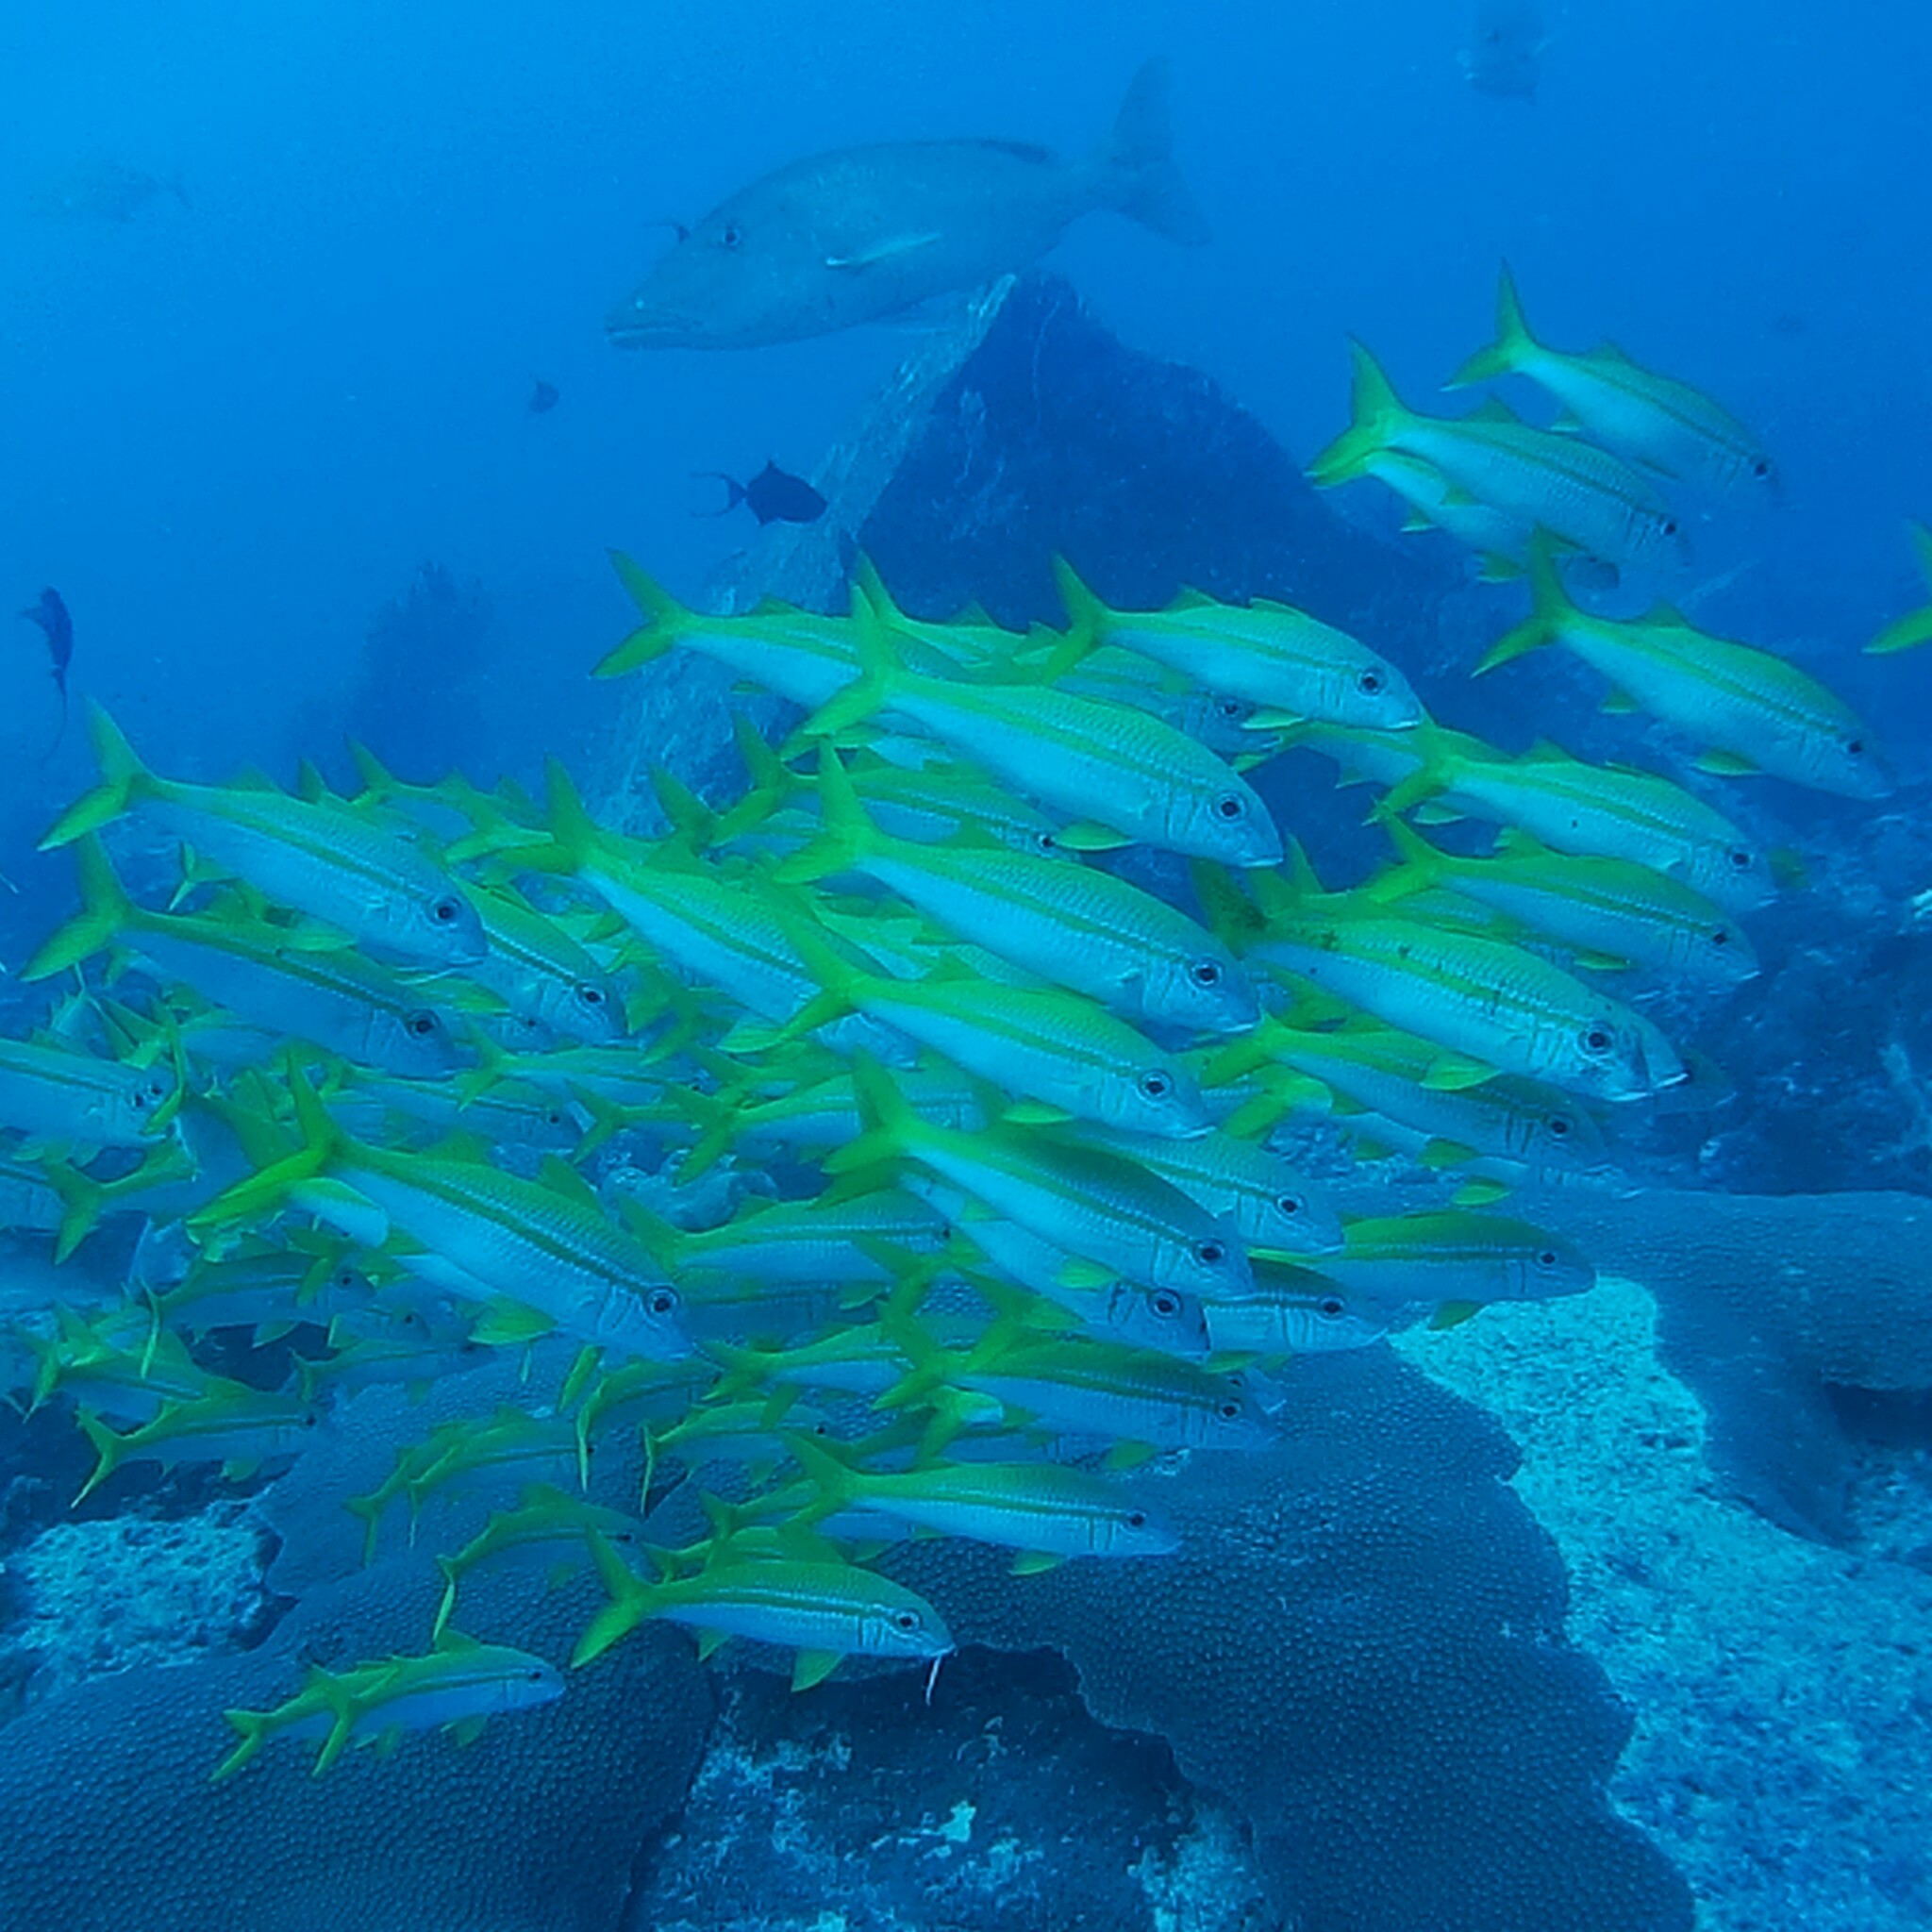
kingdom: Animalia
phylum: Chordata
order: Perciformes
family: Mullidae
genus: Mulloidichthys
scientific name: Mulloidichthys vanicolensis
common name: Yellowfin goatfish
